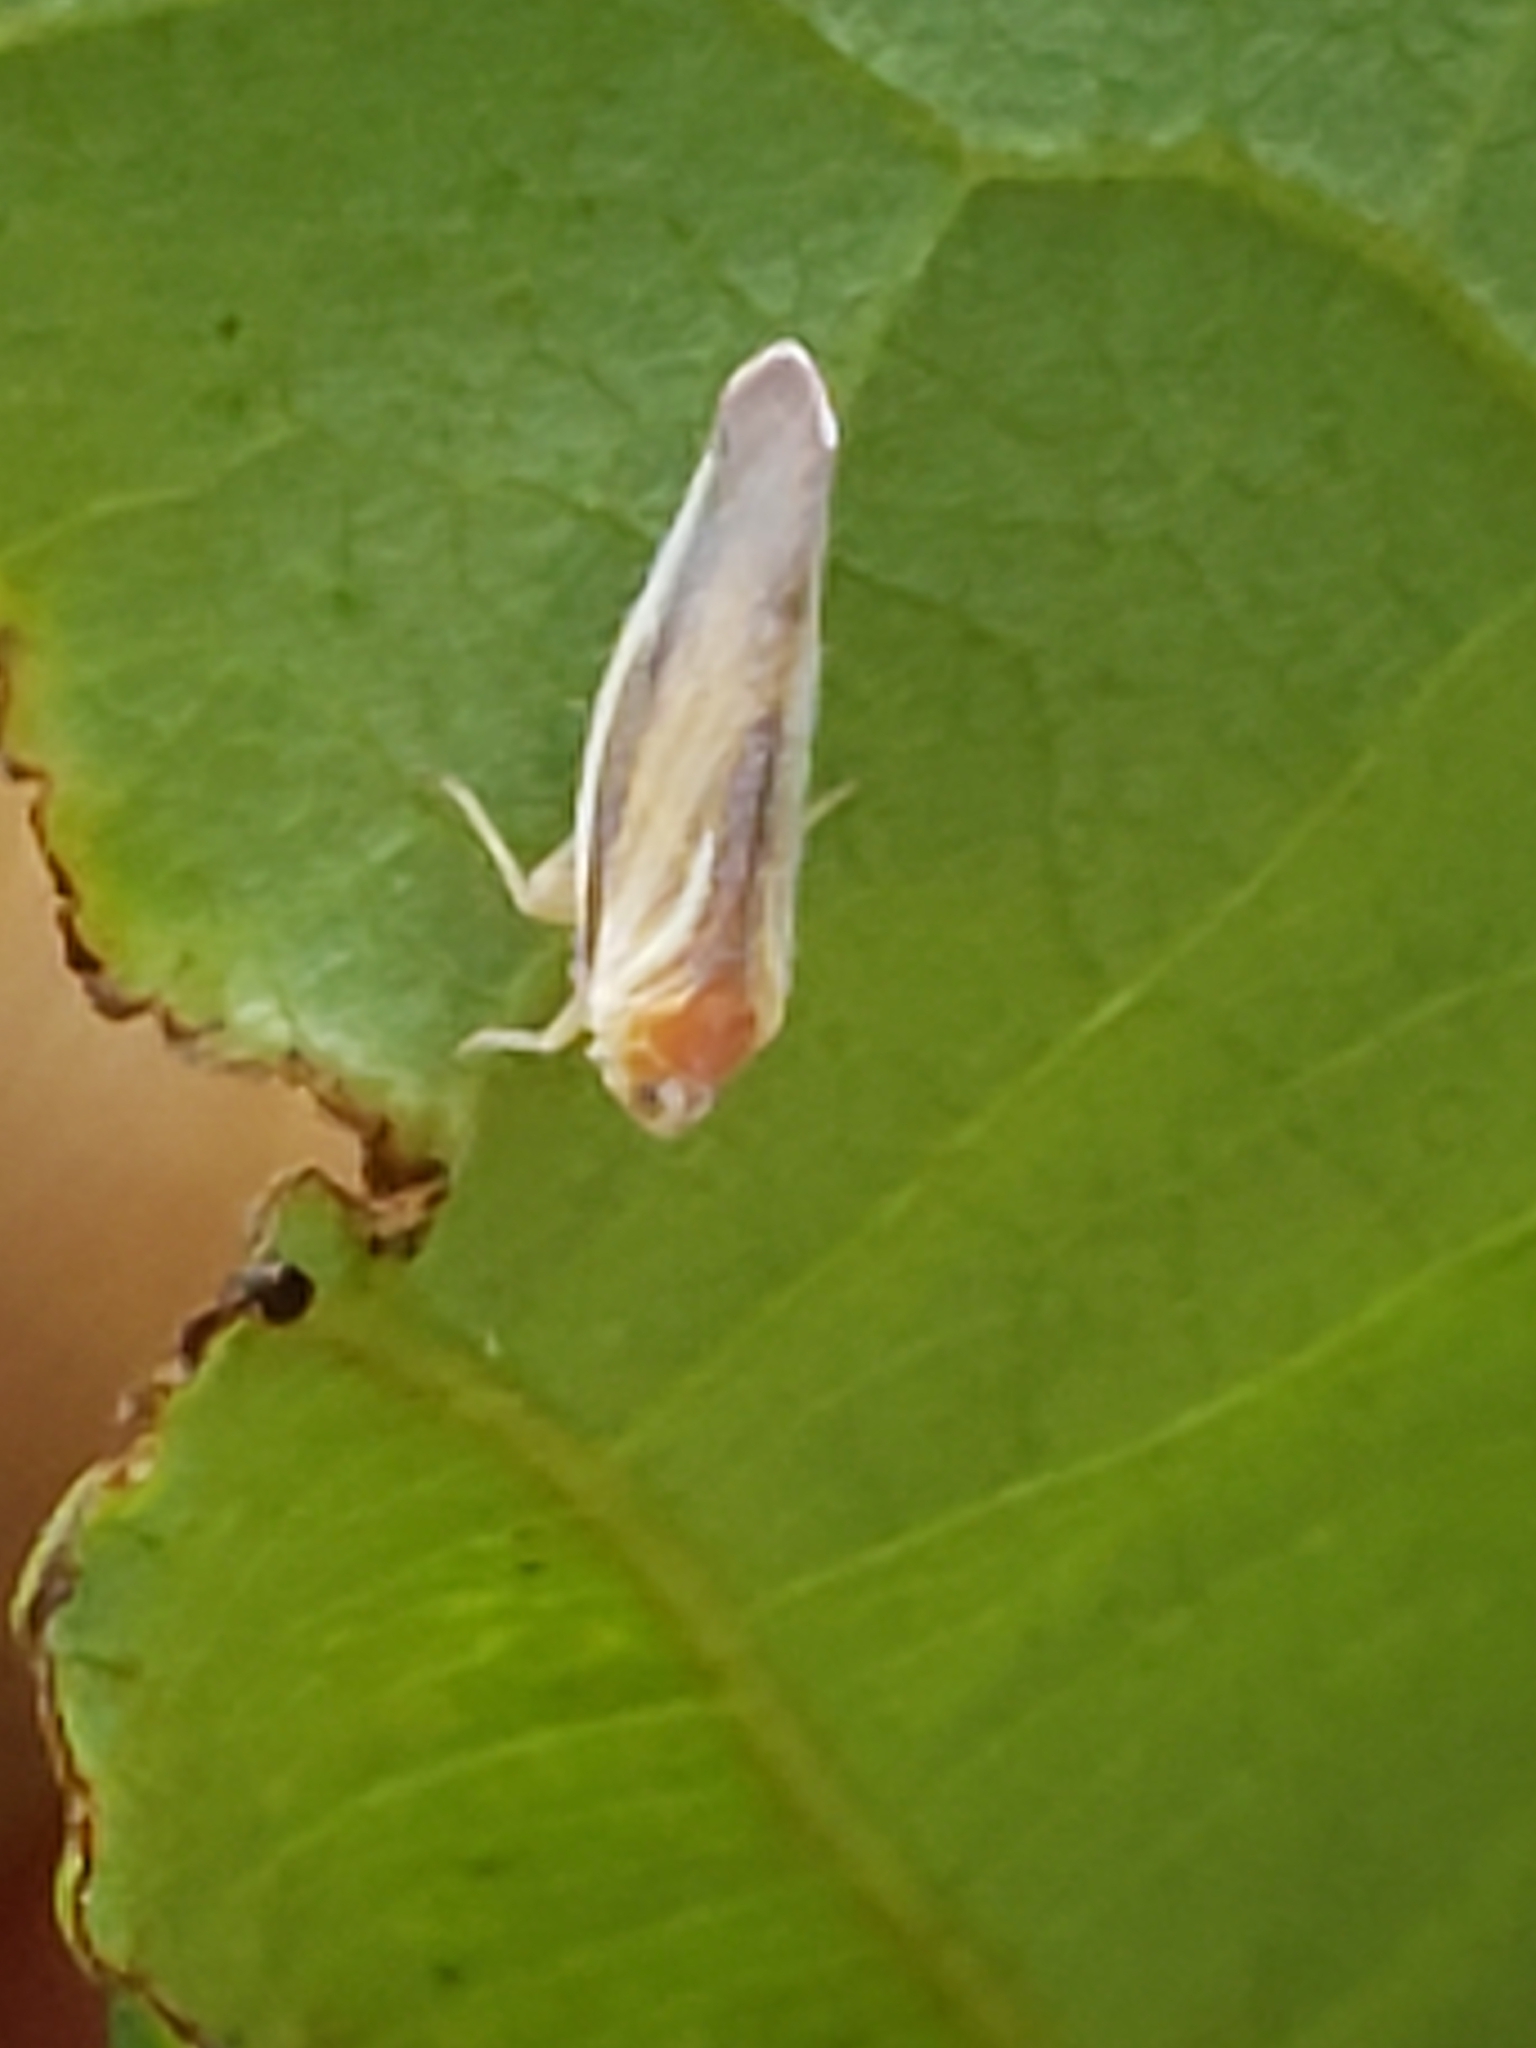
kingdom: Animalia
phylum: Arthropoda
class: Insecta
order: Hemiptera
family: Derbidae
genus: Omolicna
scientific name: Omolicna uhleri
